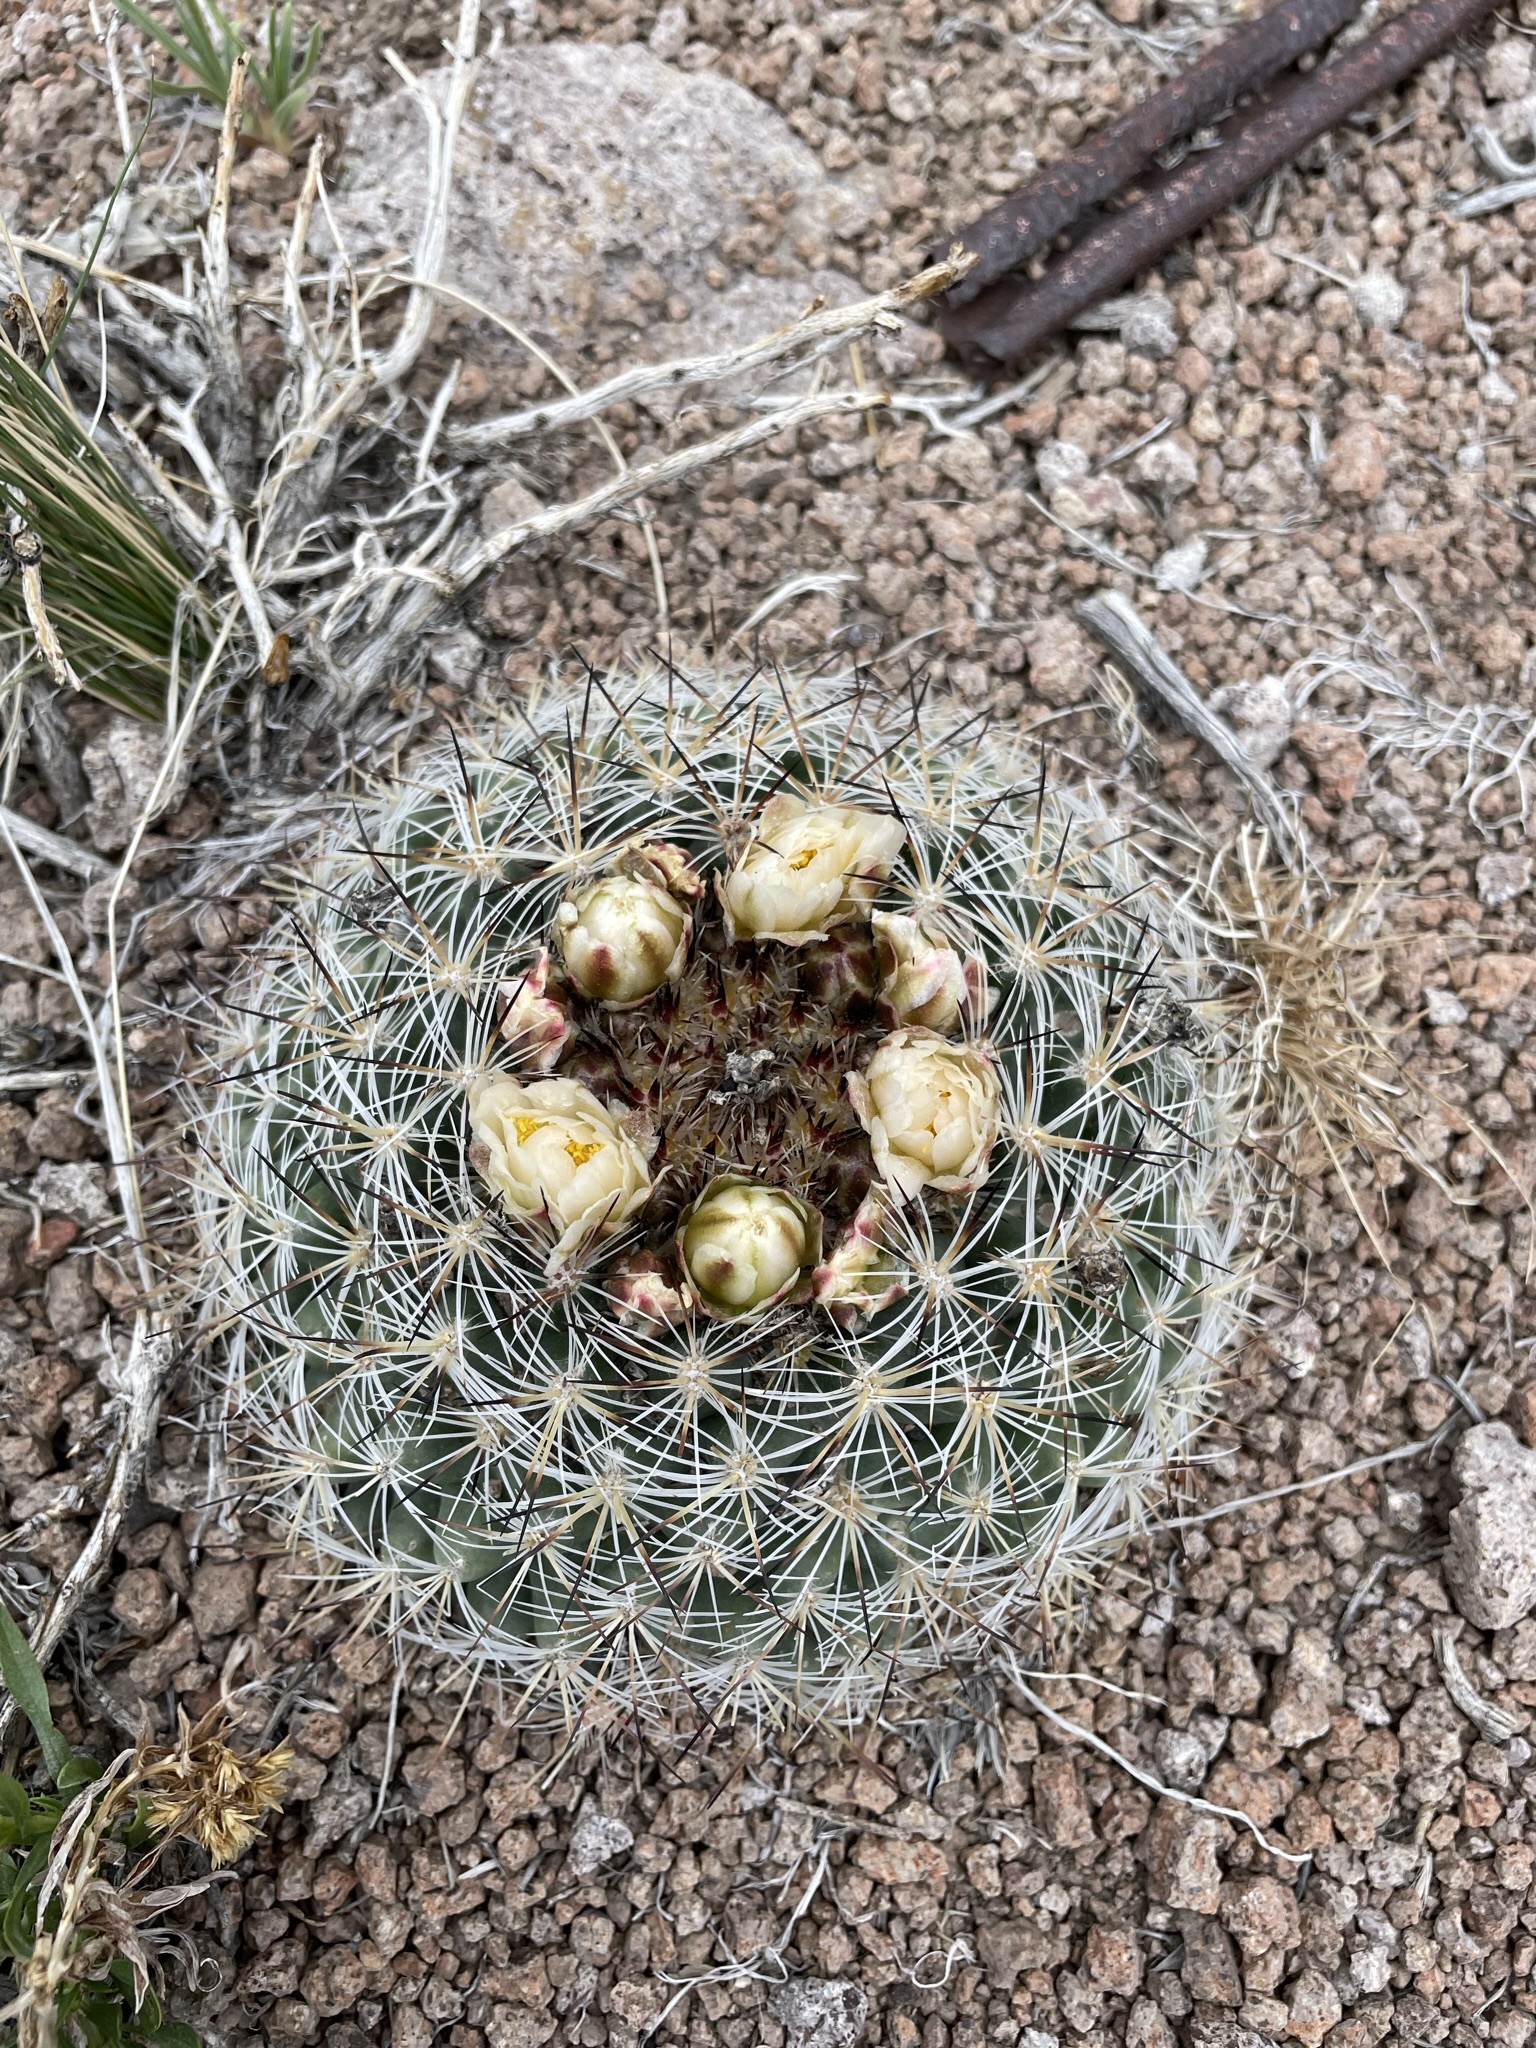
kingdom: Plantae
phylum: Tracheophyta
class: Magnoliopsida
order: Caryophyllales
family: Cactaceae
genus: Pediocactus
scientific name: Pediocactus simpsonii
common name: Simpson's hedgehog cactus
